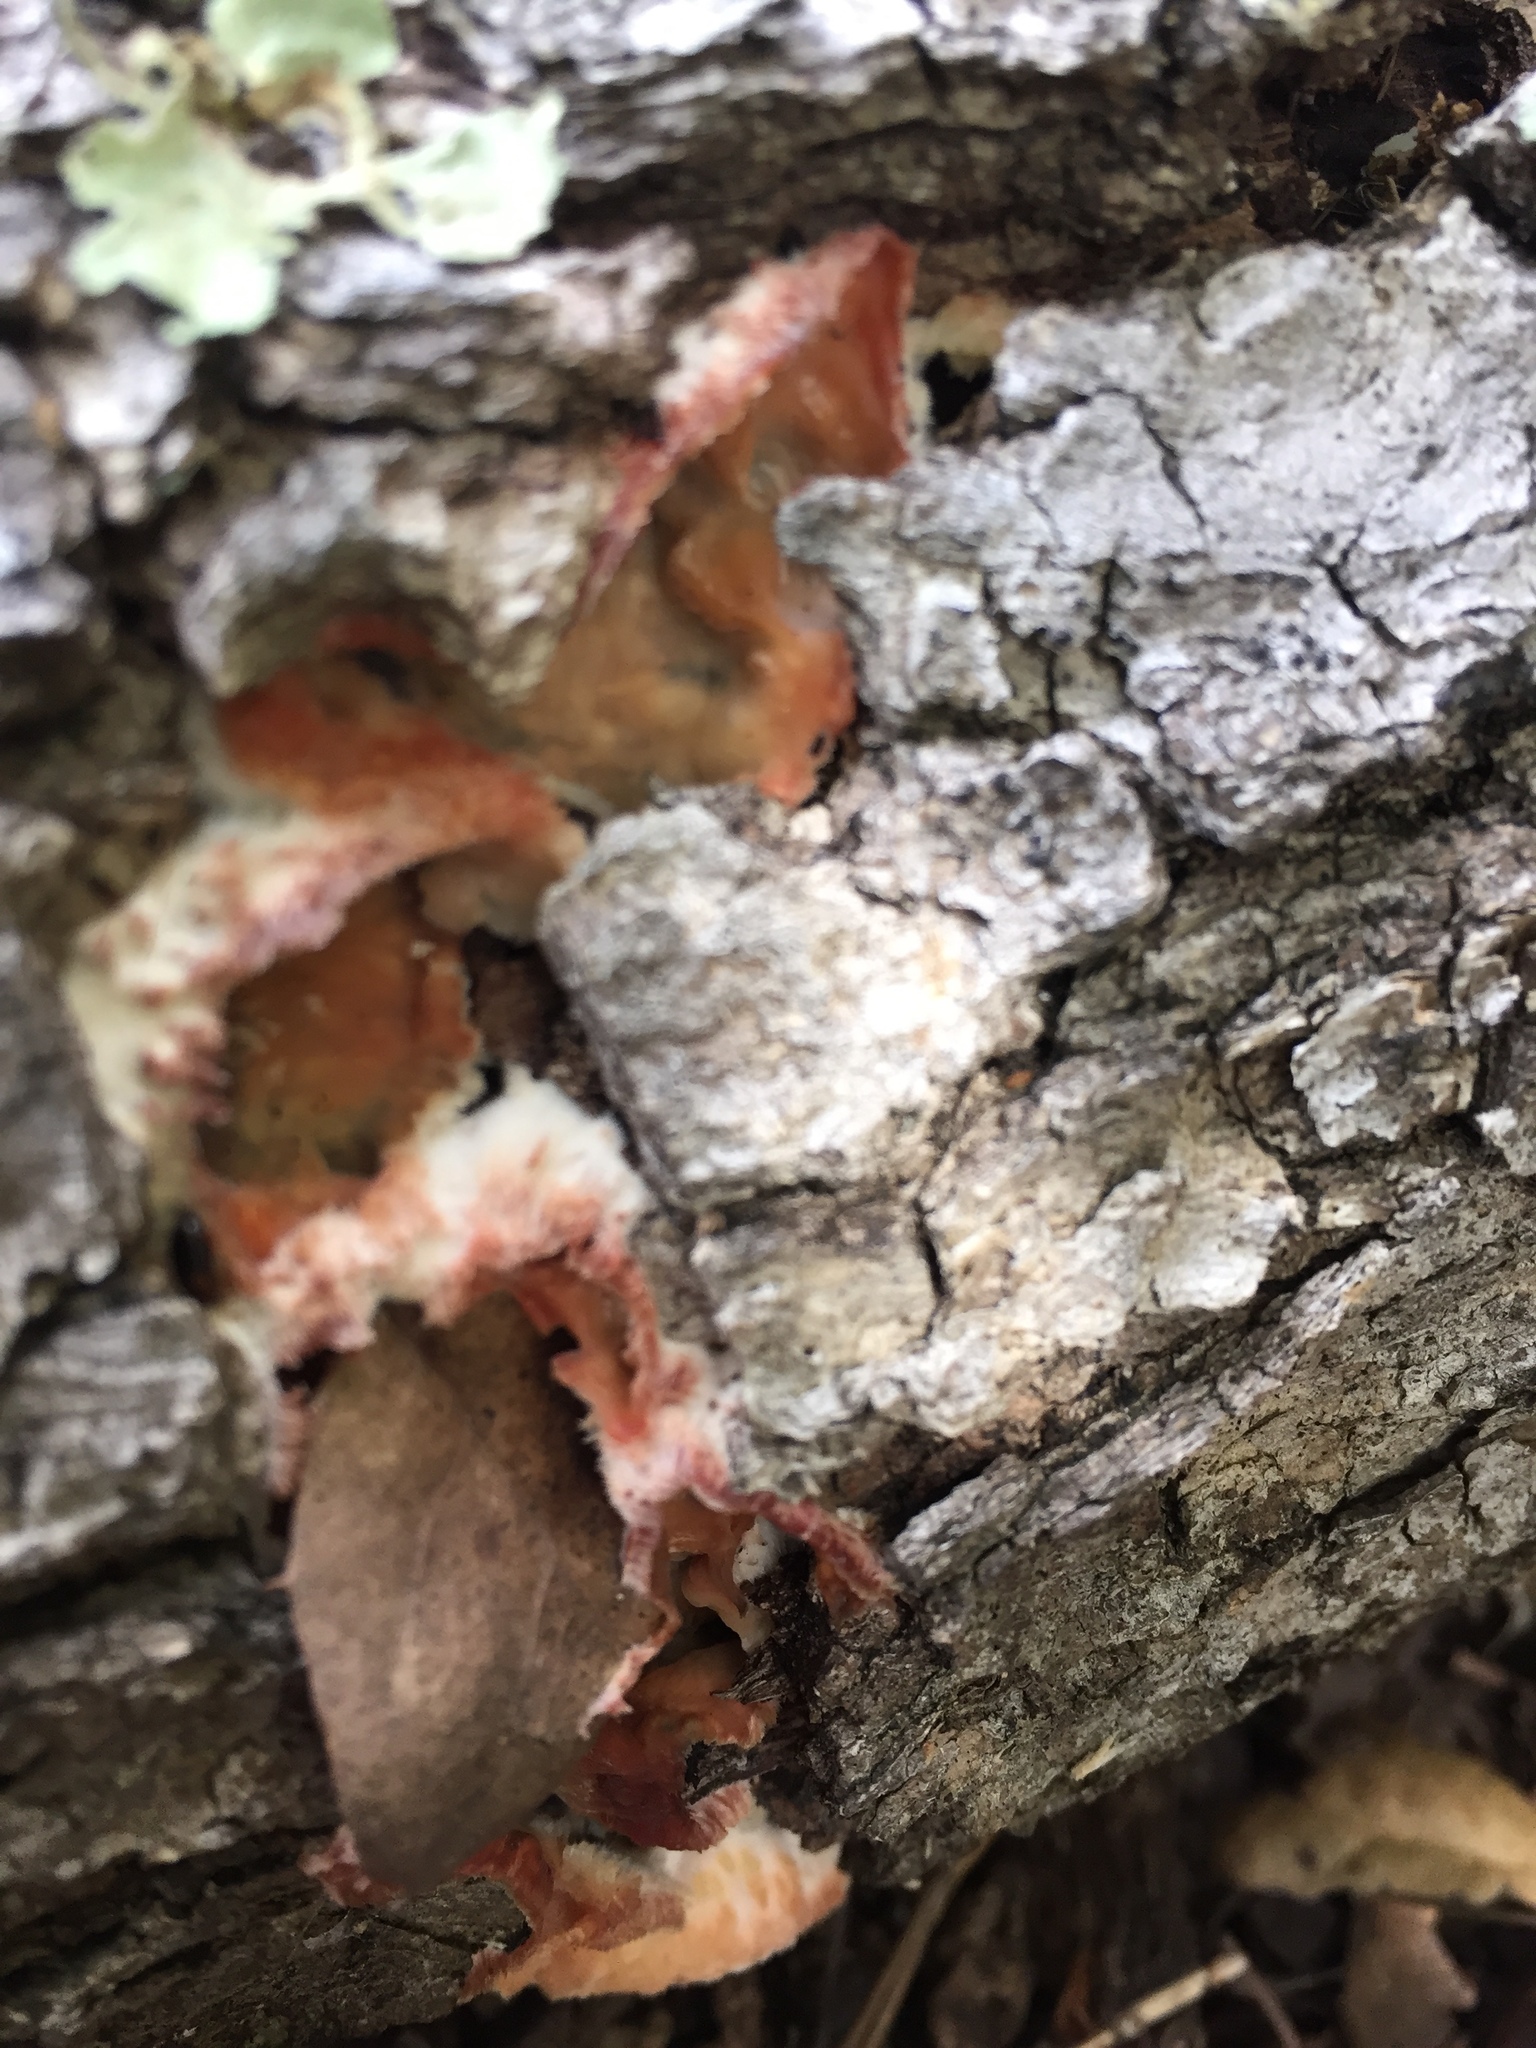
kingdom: Fungi
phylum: Basidiomycota
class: Agaricomycetes
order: Polyporales
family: Meruliaceae
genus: Phlebia
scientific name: Phlebia tremellosa
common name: Jelly rot
